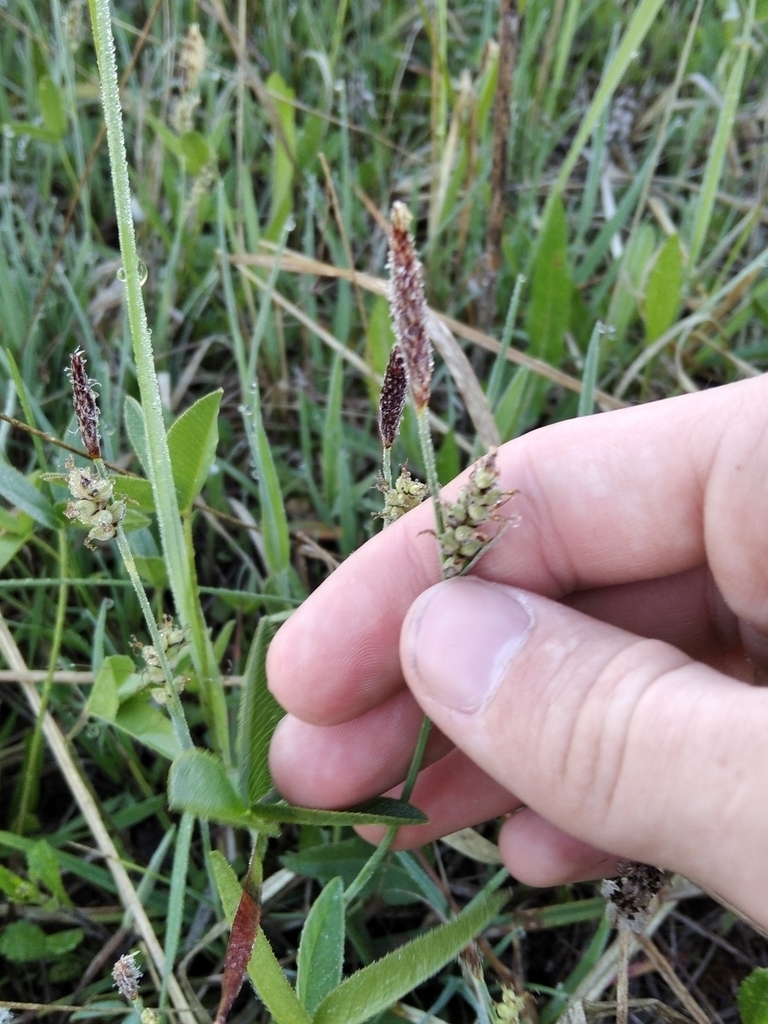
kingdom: Plantae
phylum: Tracheophyta
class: Liliopsida
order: Poales
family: Cyperaceae
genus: Carex
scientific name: Carex panicea
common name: Carnation sedge
